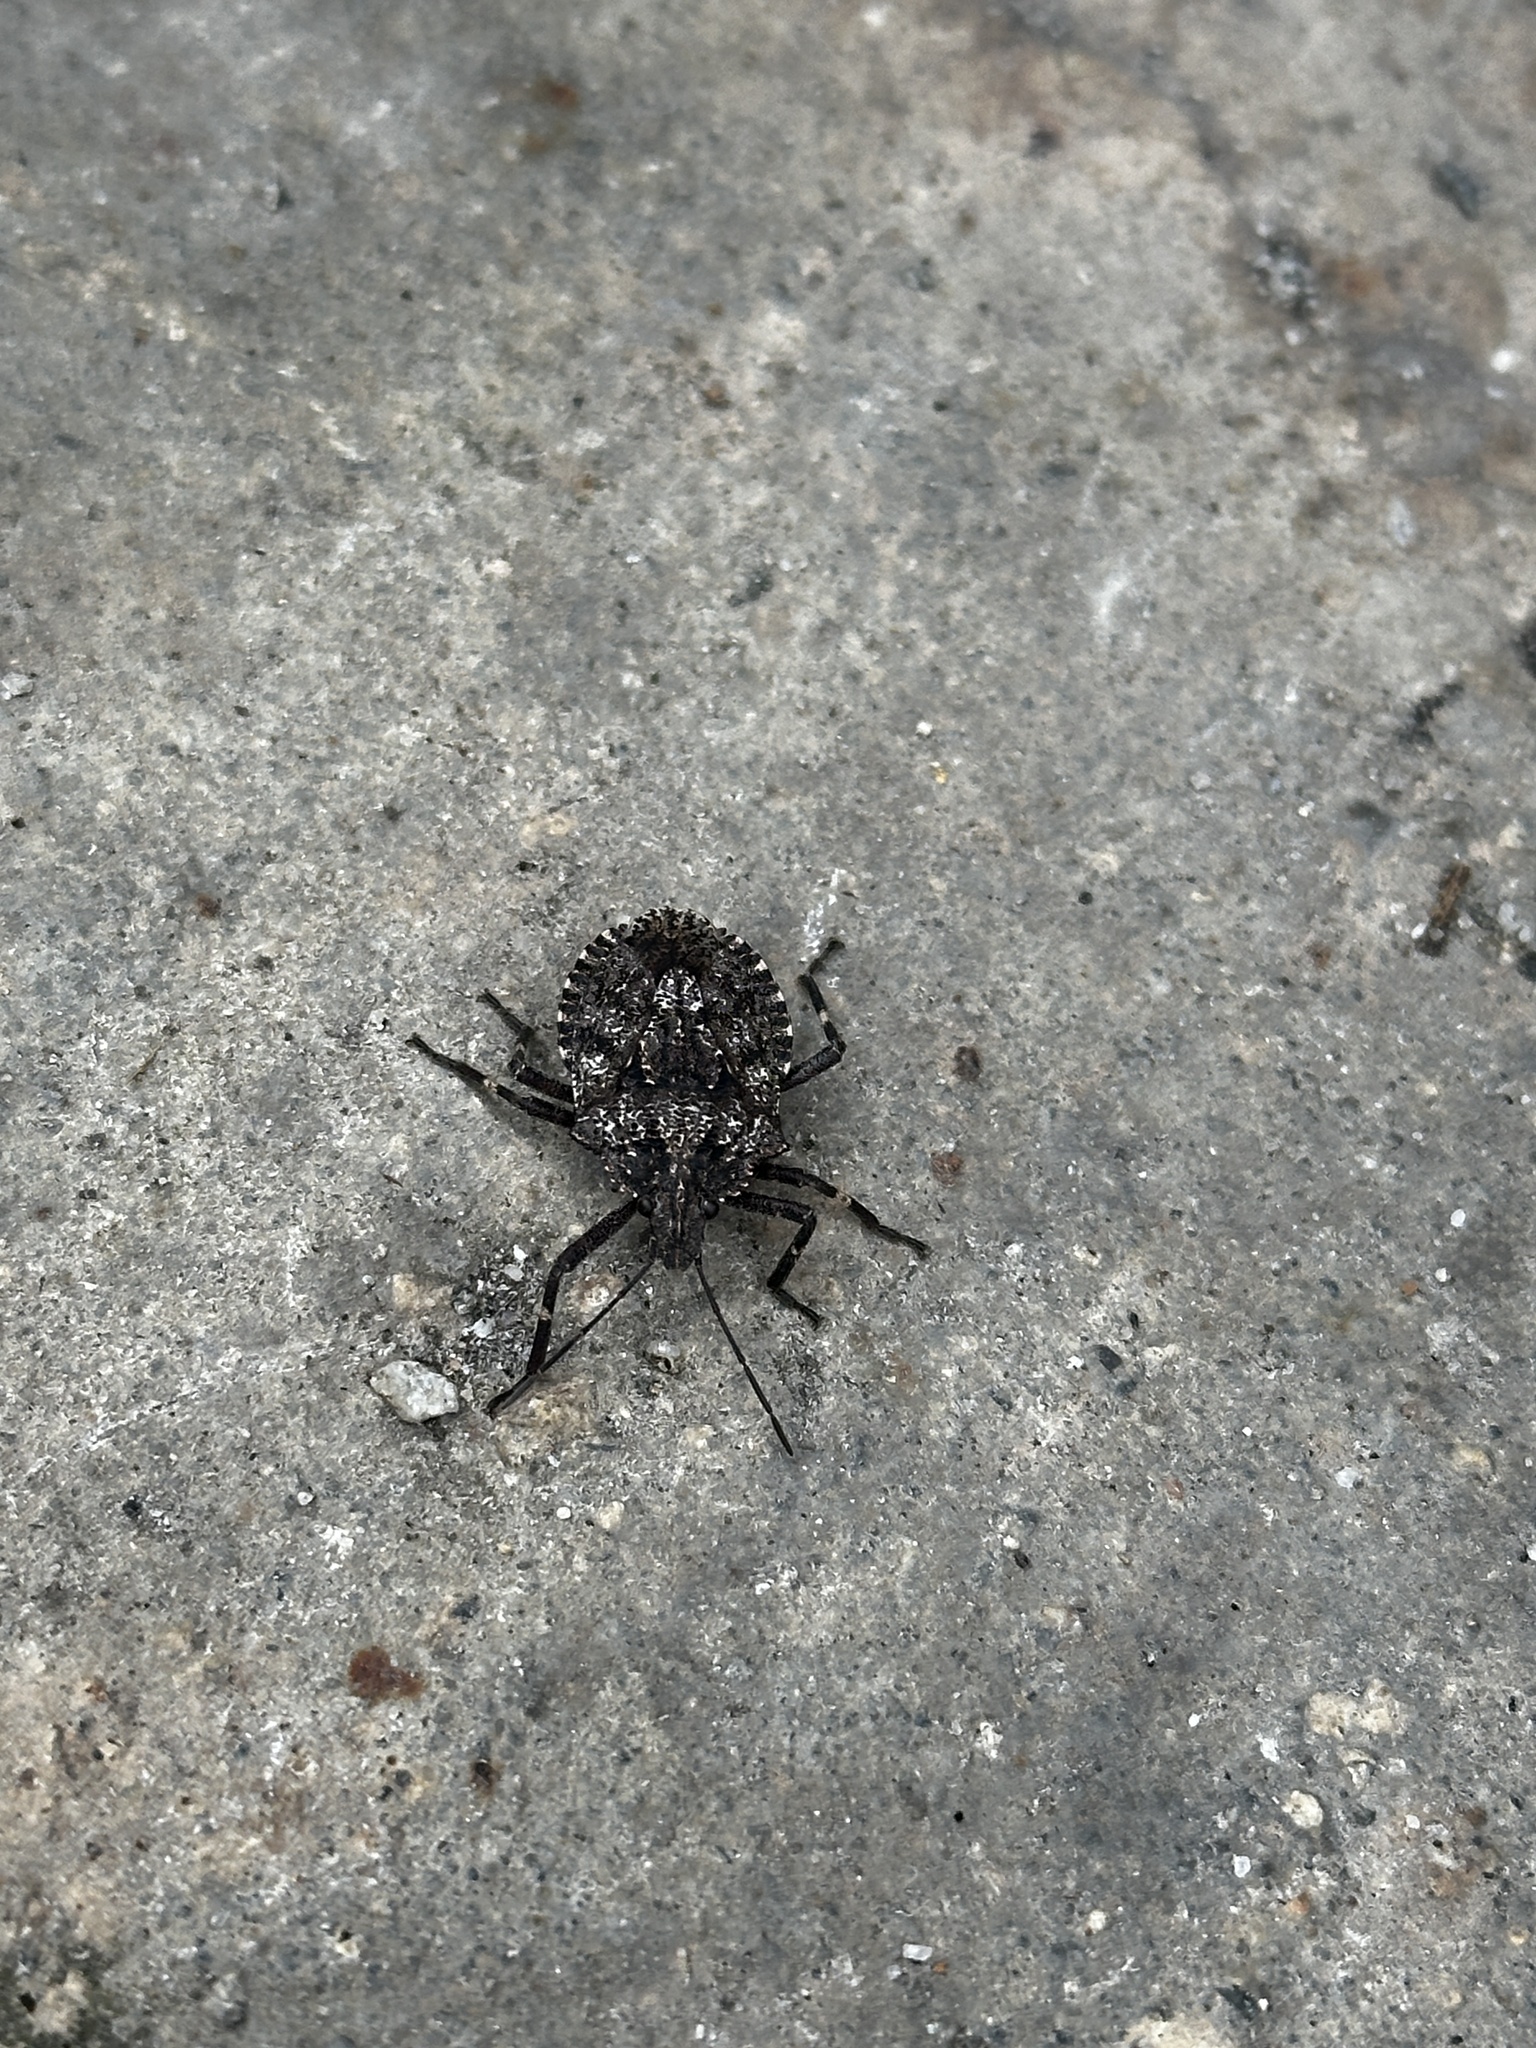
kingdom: Animalia
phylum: Arthropoda
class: Insecta
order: Hemiptera
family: Pentatomidae
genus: Brochymena
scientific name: Brochymena affinis
